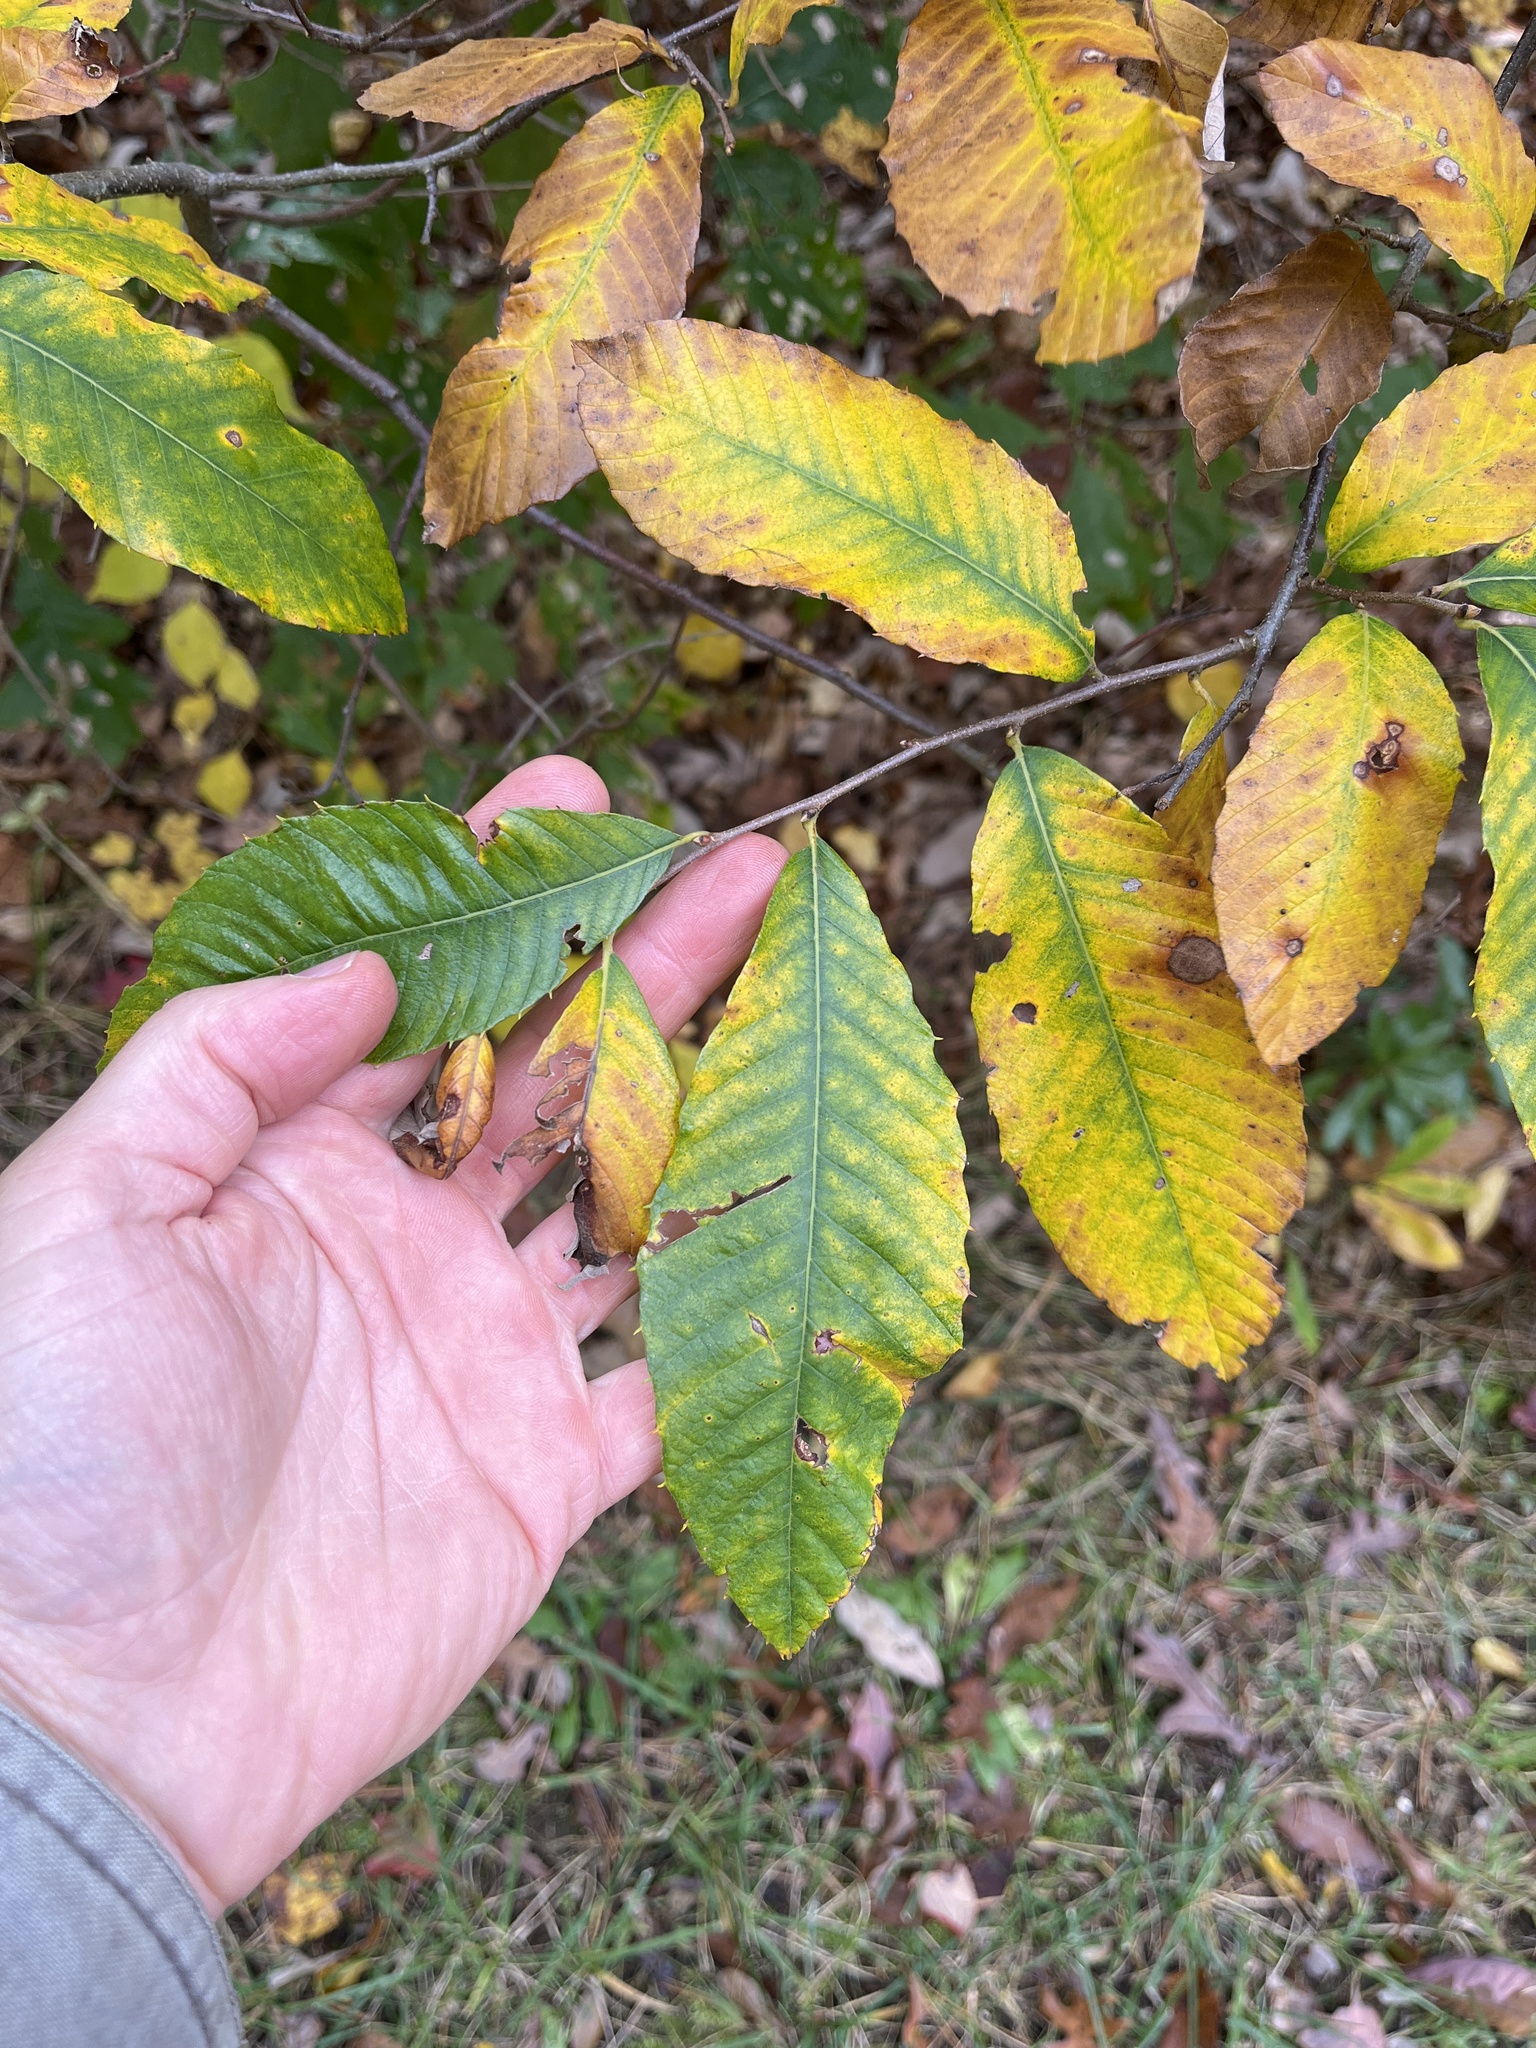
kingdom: Plantae
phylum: Tracheophyta
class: Magnoliopsida
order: Fagales
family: Fagaceae
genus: Castanea
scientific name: Castanea pumila
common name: Chinkapin
